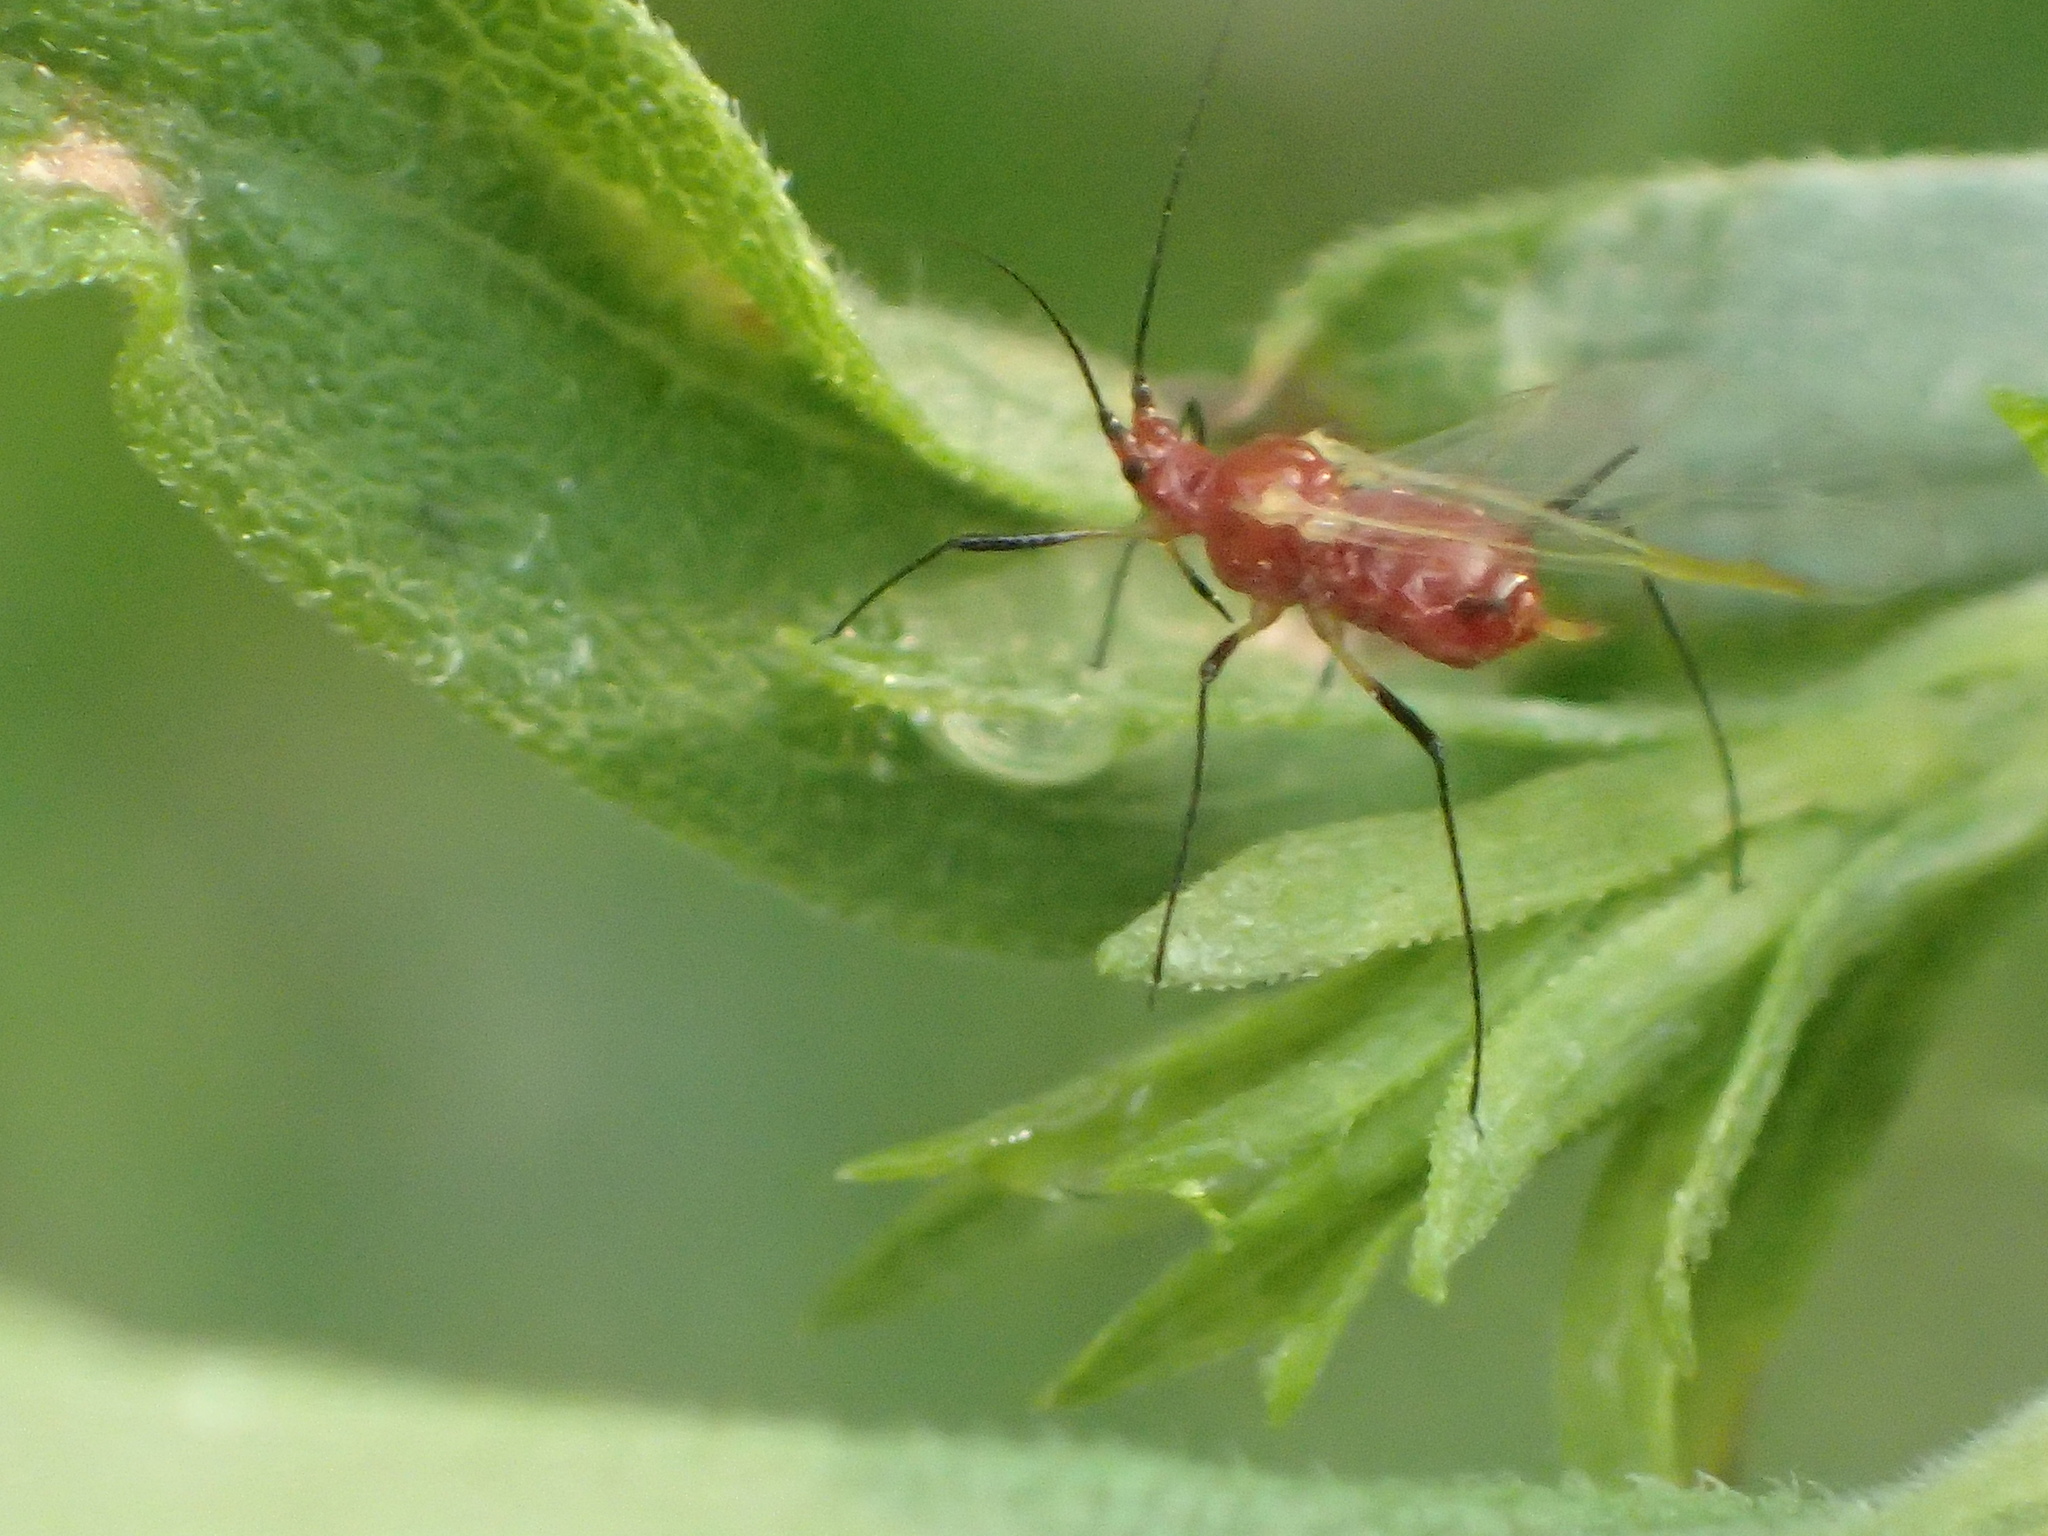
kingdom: Animalia
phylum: Arthropoda
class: Insecta
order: Hemiptera
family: Aphididae
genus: Uroleucon
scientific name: Uroleucon
